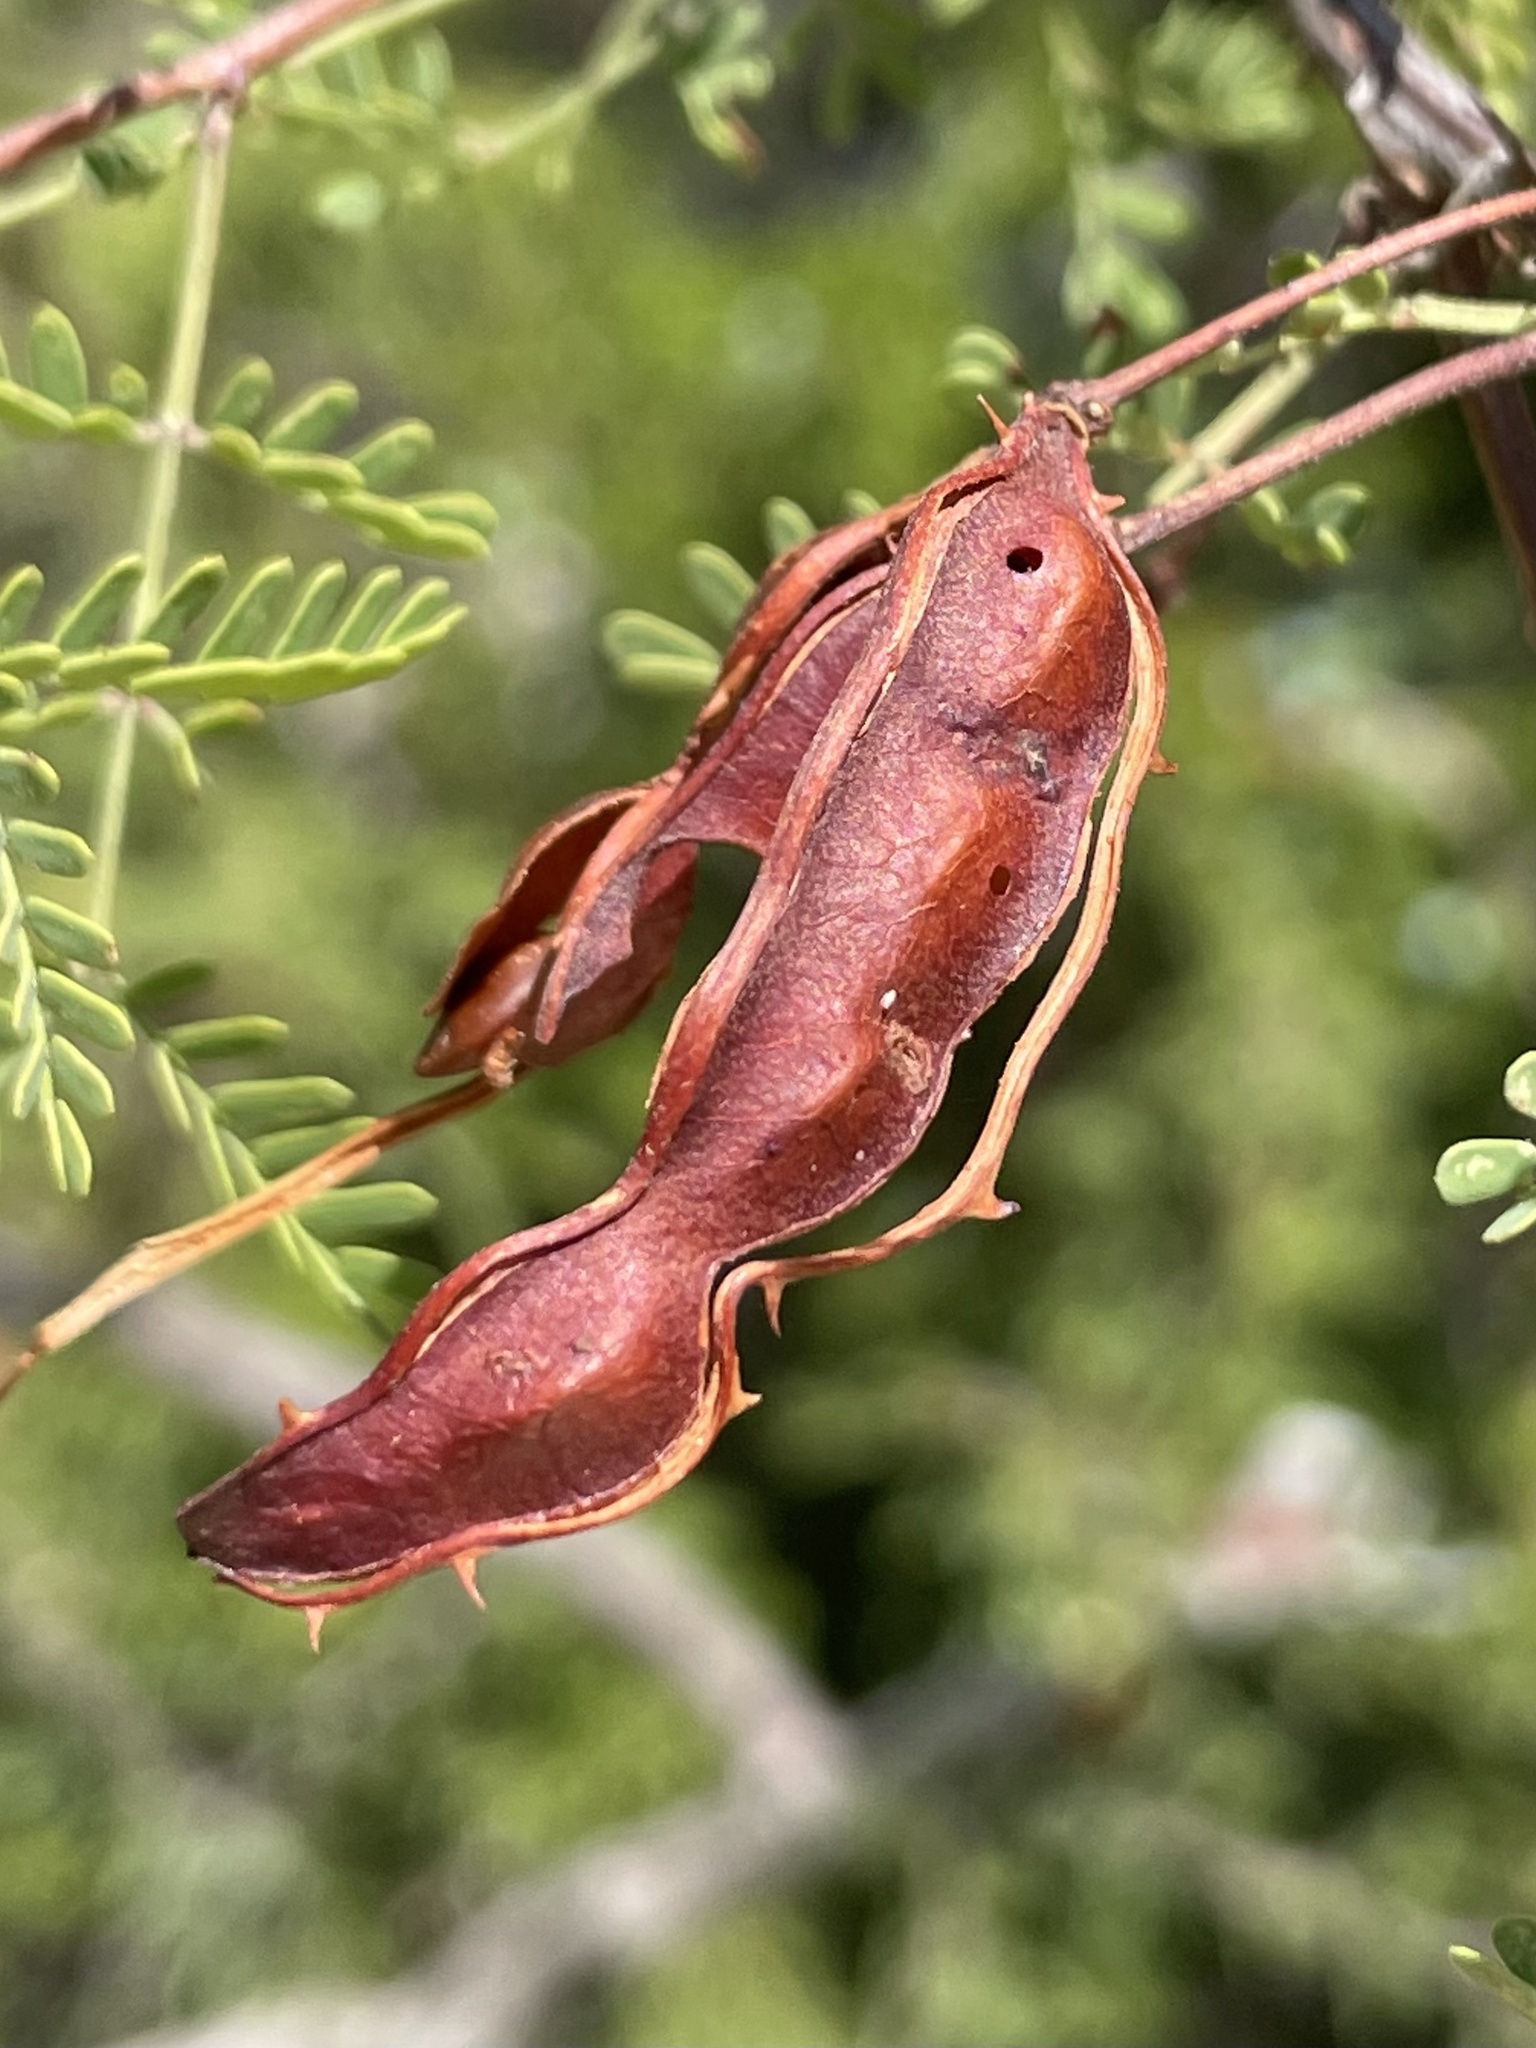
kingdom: Plantae
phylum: Tracheophyta
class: Magnoliopsida
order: Fabales
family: Fabaceae
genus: Mimosa
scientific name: Mimosa texana
